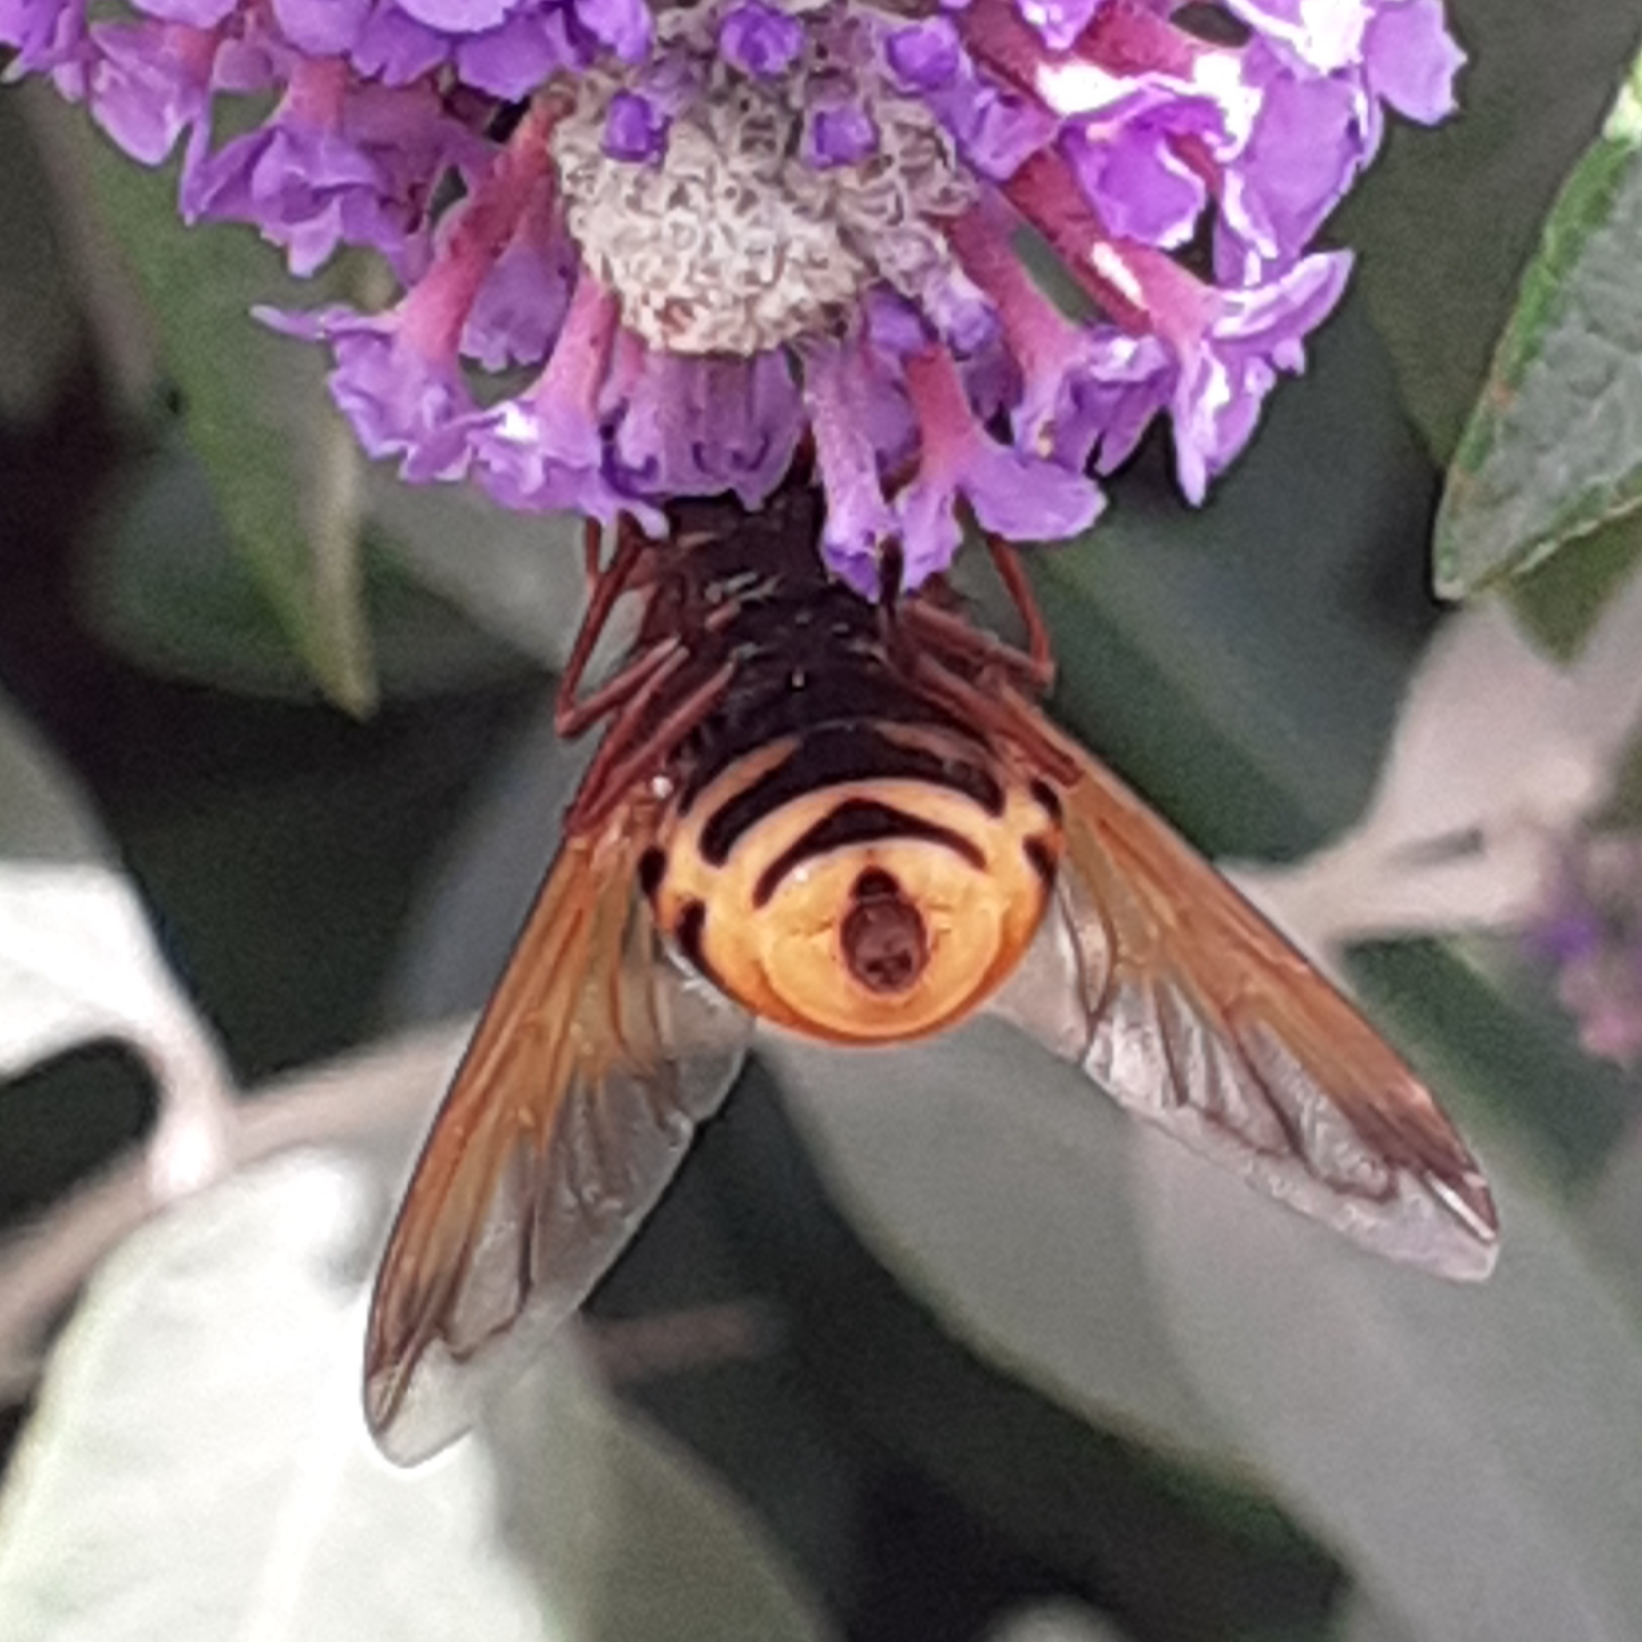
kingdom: Animalia
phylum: Arthropoda
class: Insecta
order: Diptera
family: Syrphidae
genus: Volucella
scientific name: Volucella zonaria
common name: Hornet hoverfly
